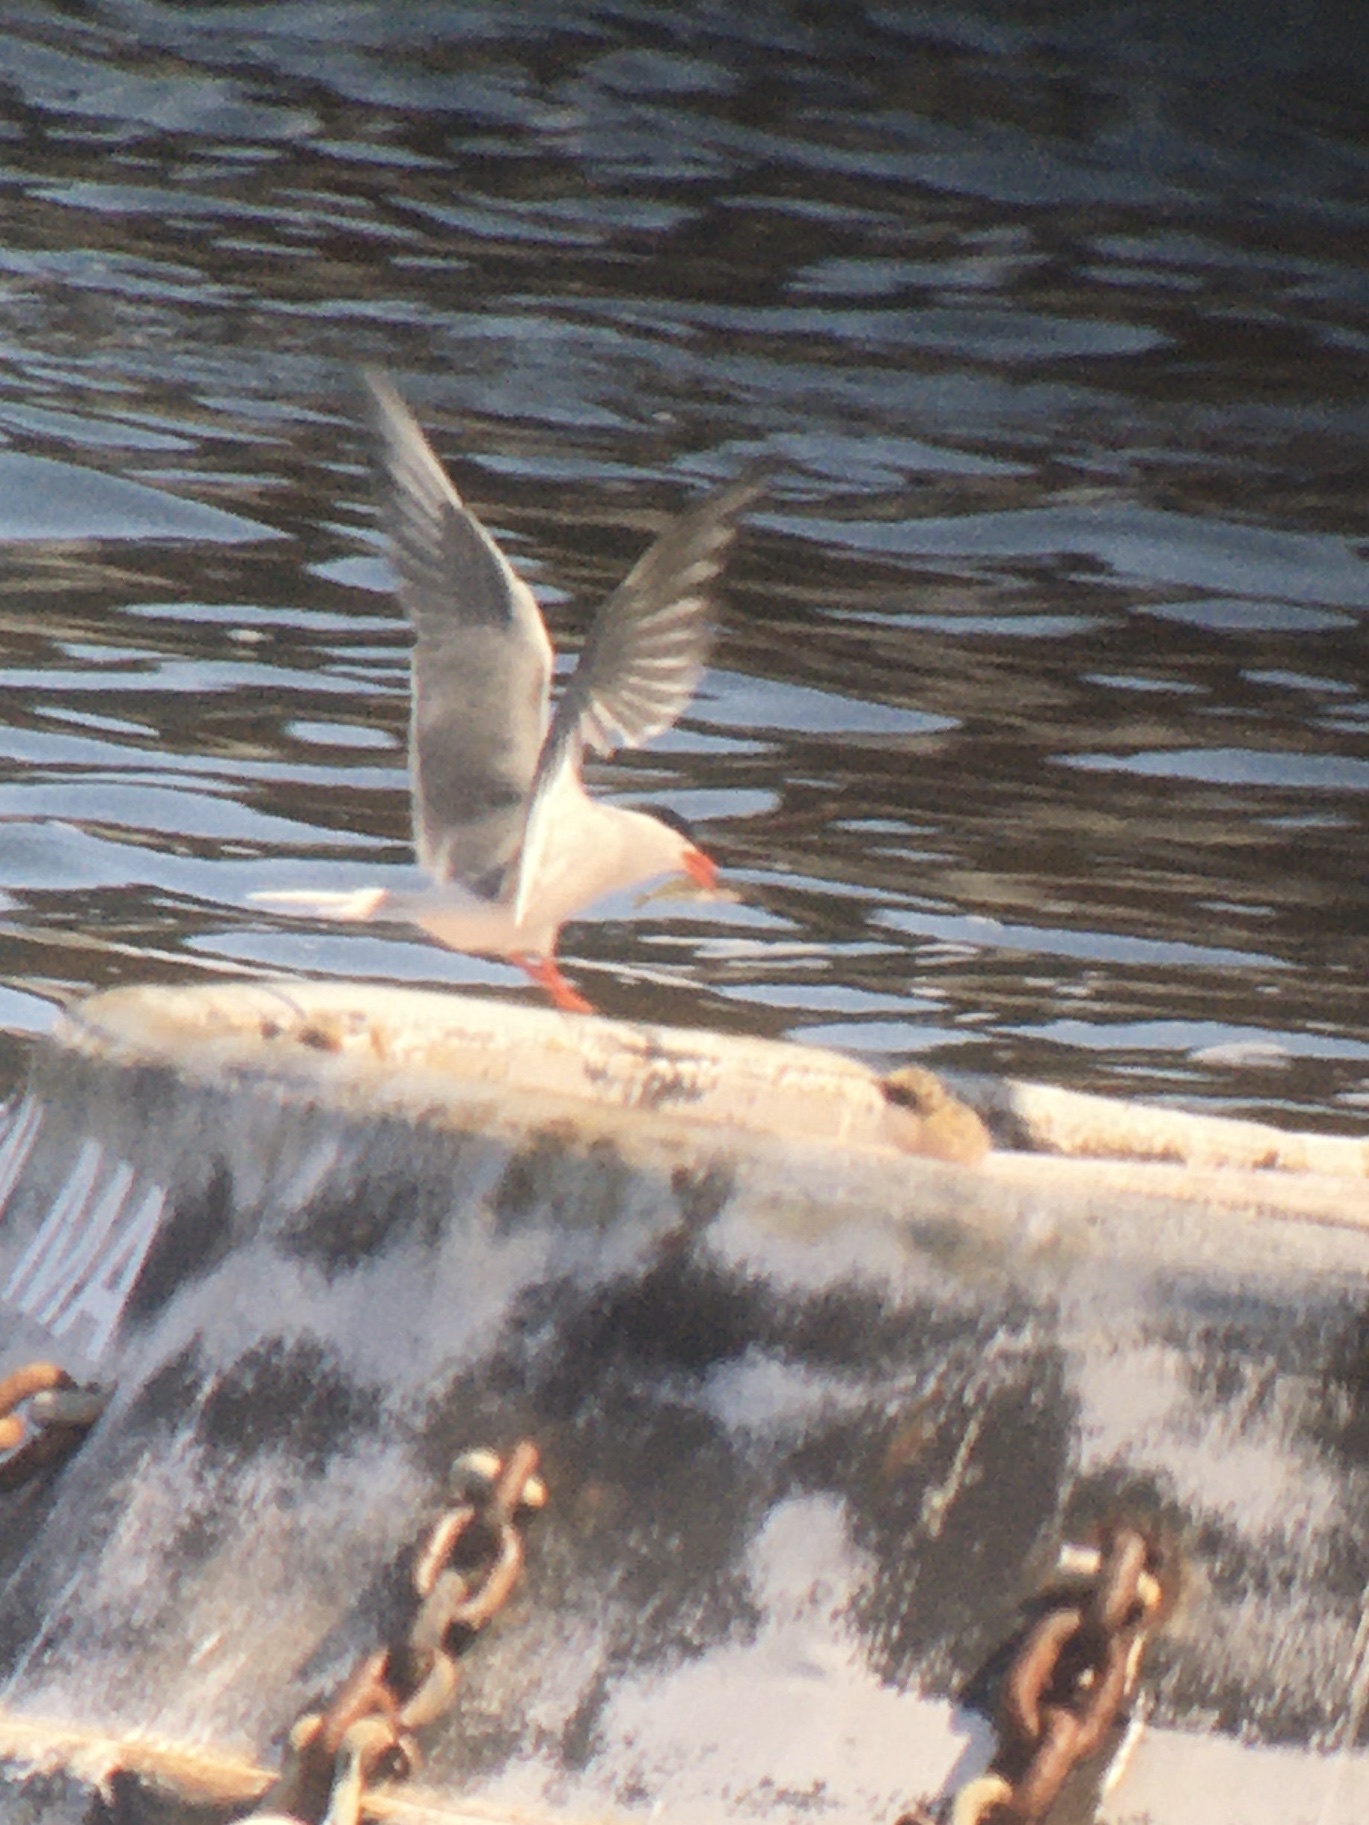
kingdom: Animalia
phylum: Chordata
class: Aves
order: Charadriiformes
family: Laridae
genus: Sterna
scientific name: Sterna hirundo
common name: Common tern
